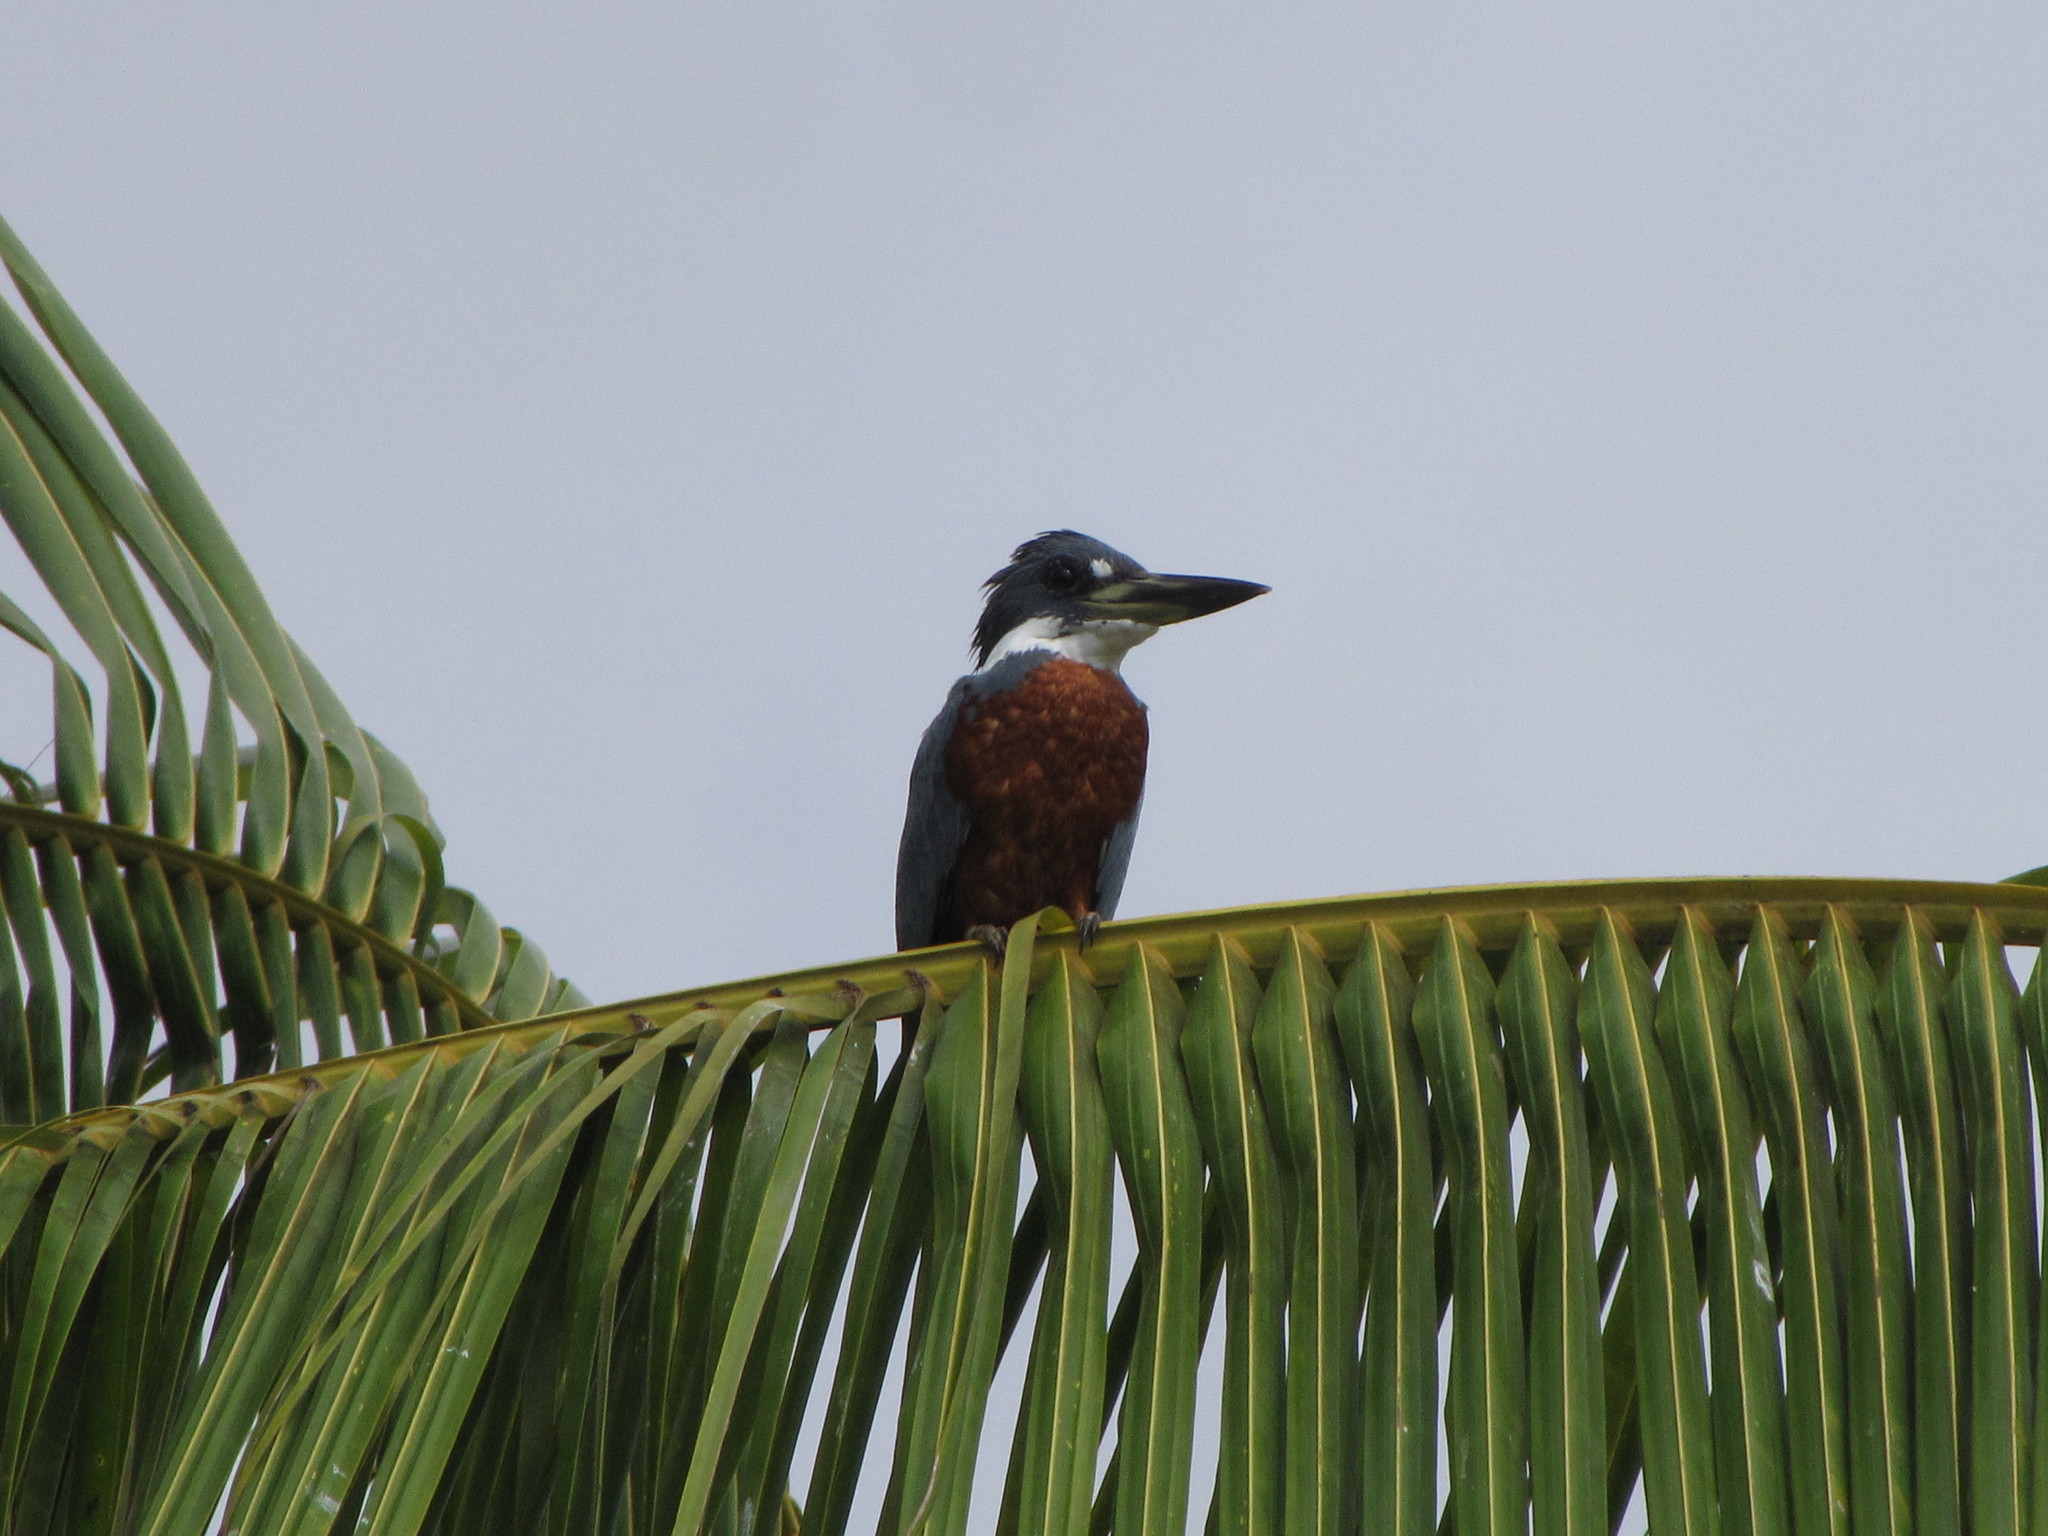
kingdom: Animalia
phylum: Chordata
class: Aves
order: Coraciiformes
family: Alcedinidae
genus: Megaceryle
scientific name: Megaceryle torquata
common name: Ringed kingfisher
